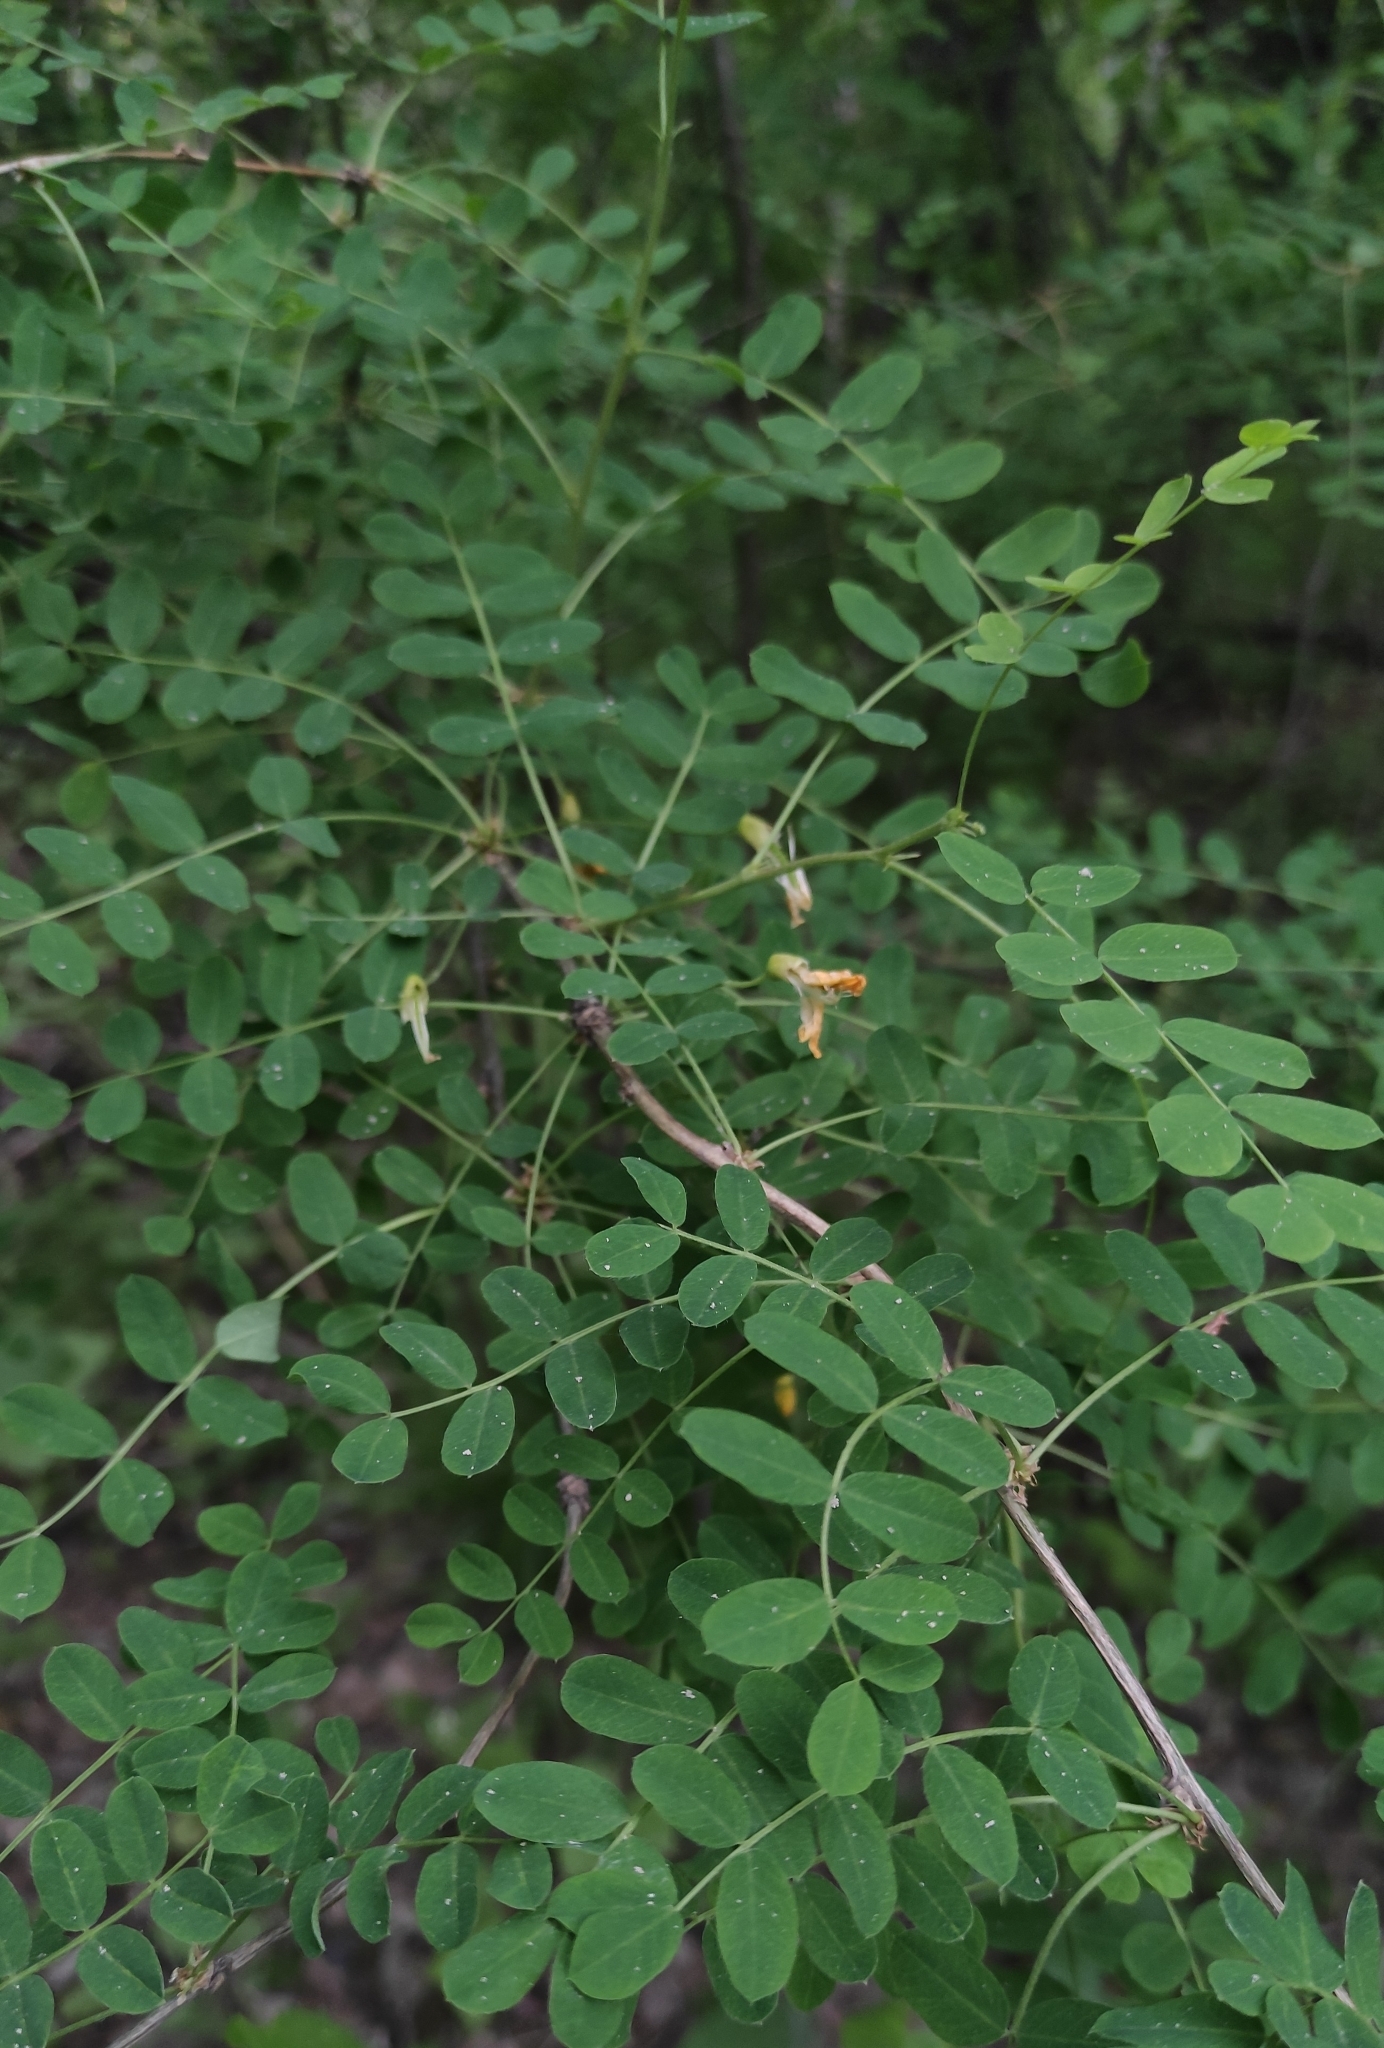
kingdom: Plantae
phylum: Tracheophyta
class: Magnoliopsida
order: Fabales
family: Fabaceae
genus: Caragana
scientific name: Caragana arborescens
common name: Siberian peashrub
